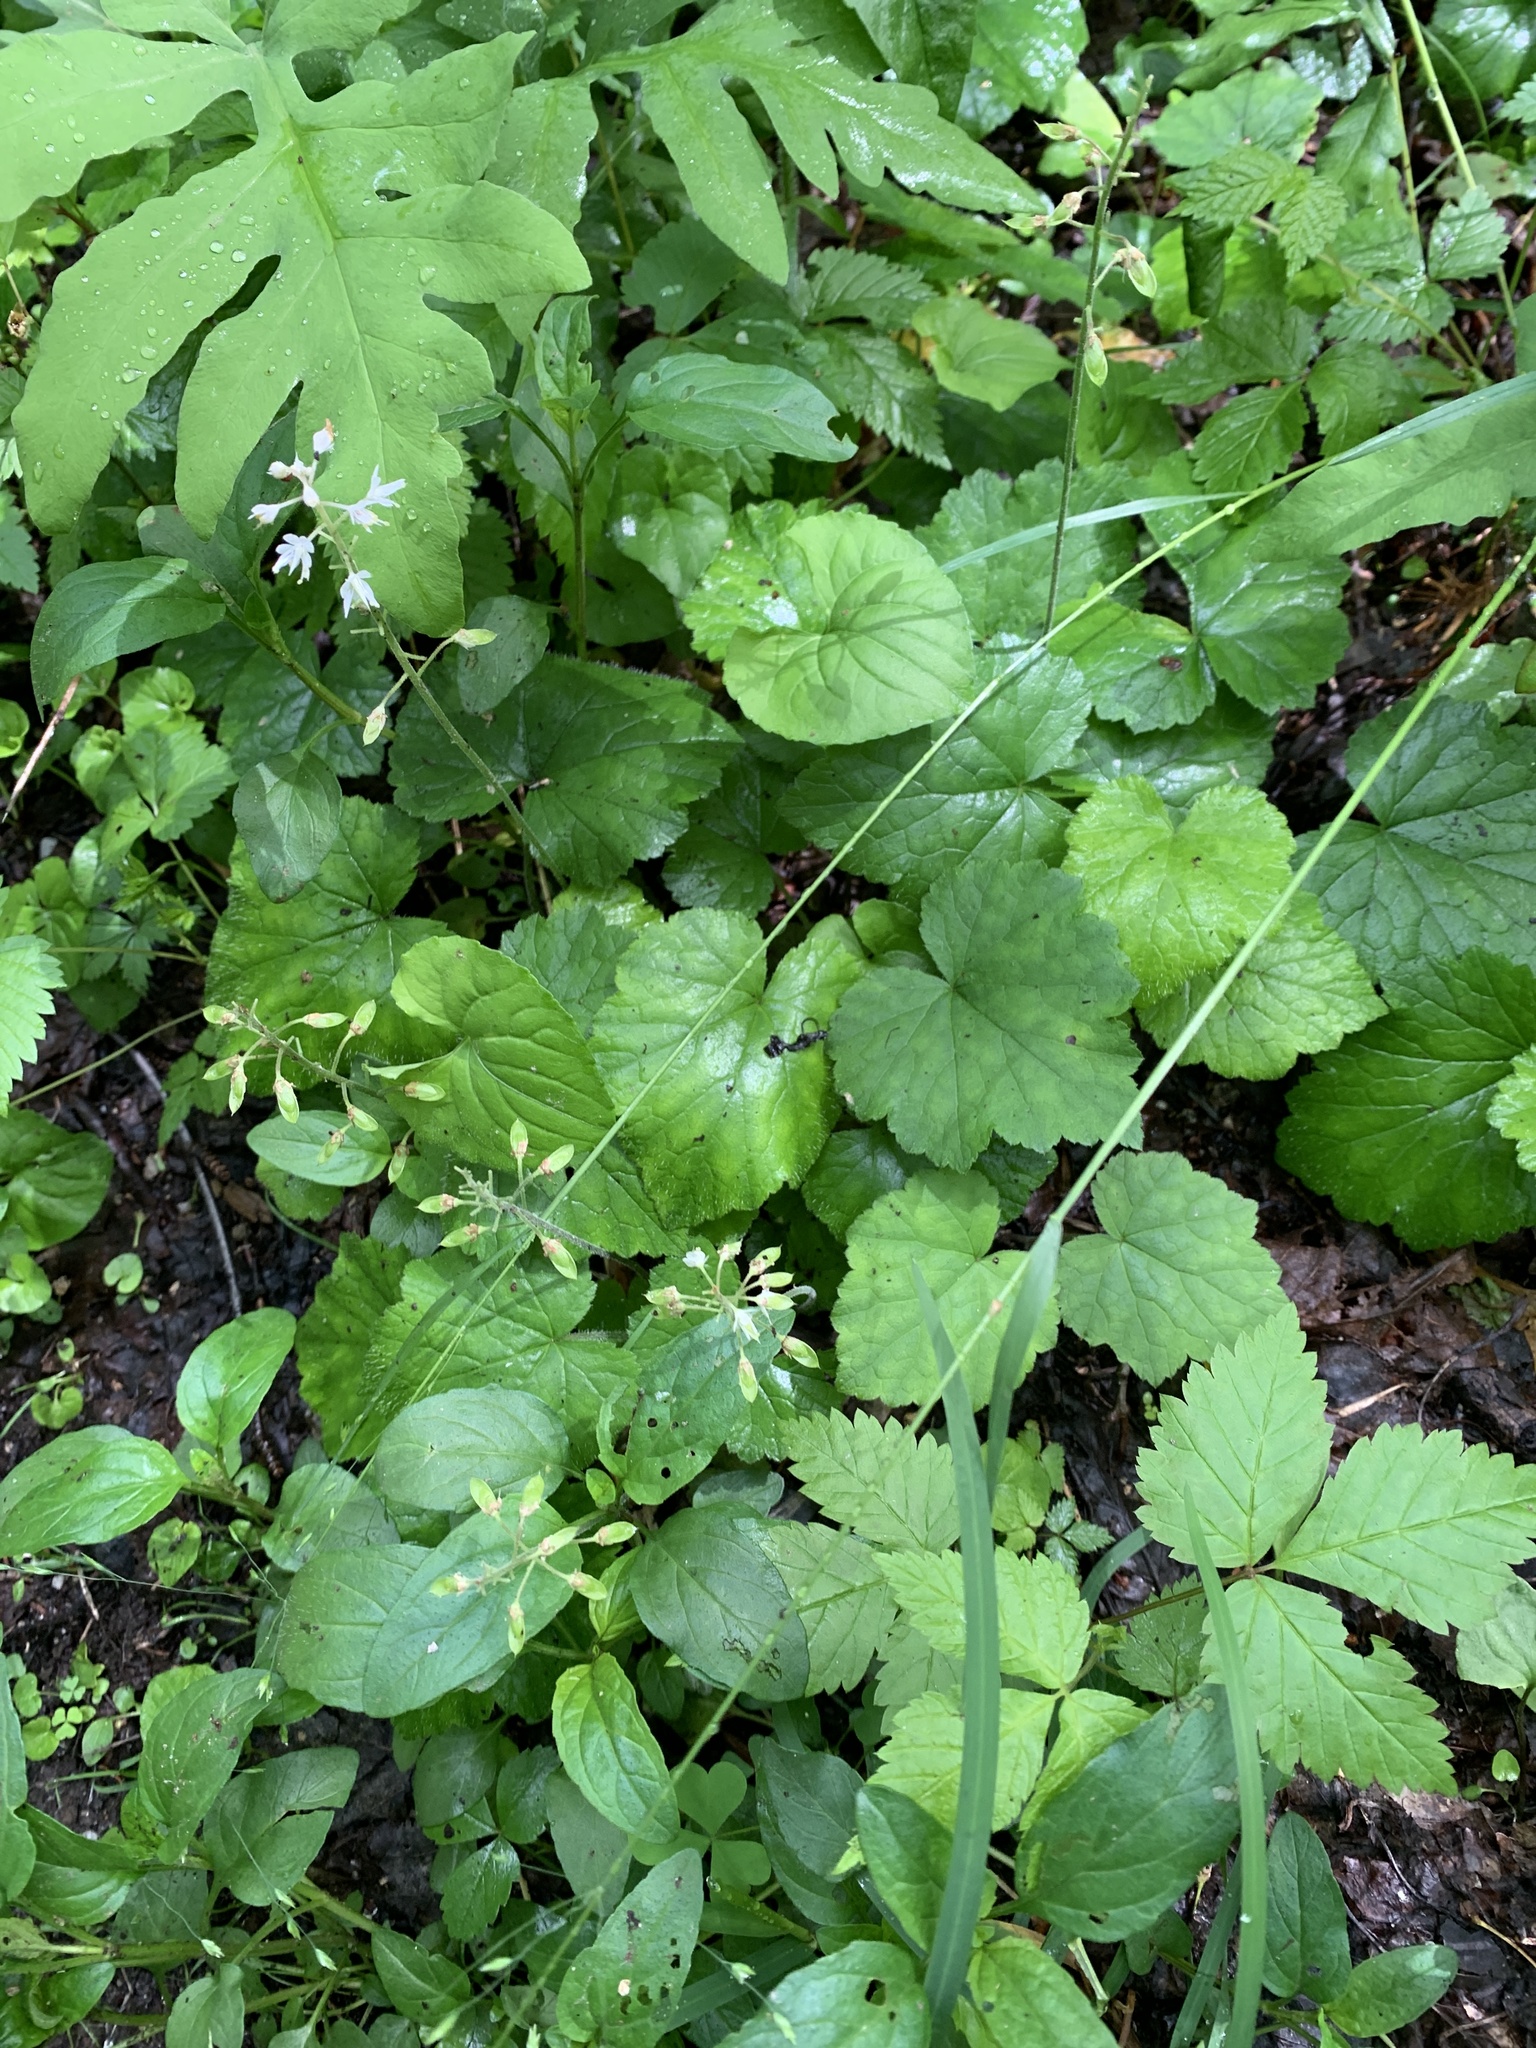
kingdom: Plantae
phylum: Tracheophyta
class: Magnoliopsida
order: Saxifragales
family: Saxifragaceae
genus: Tiarella
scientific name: Tiarella stolonifera
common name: Stoloniferous foamflower
